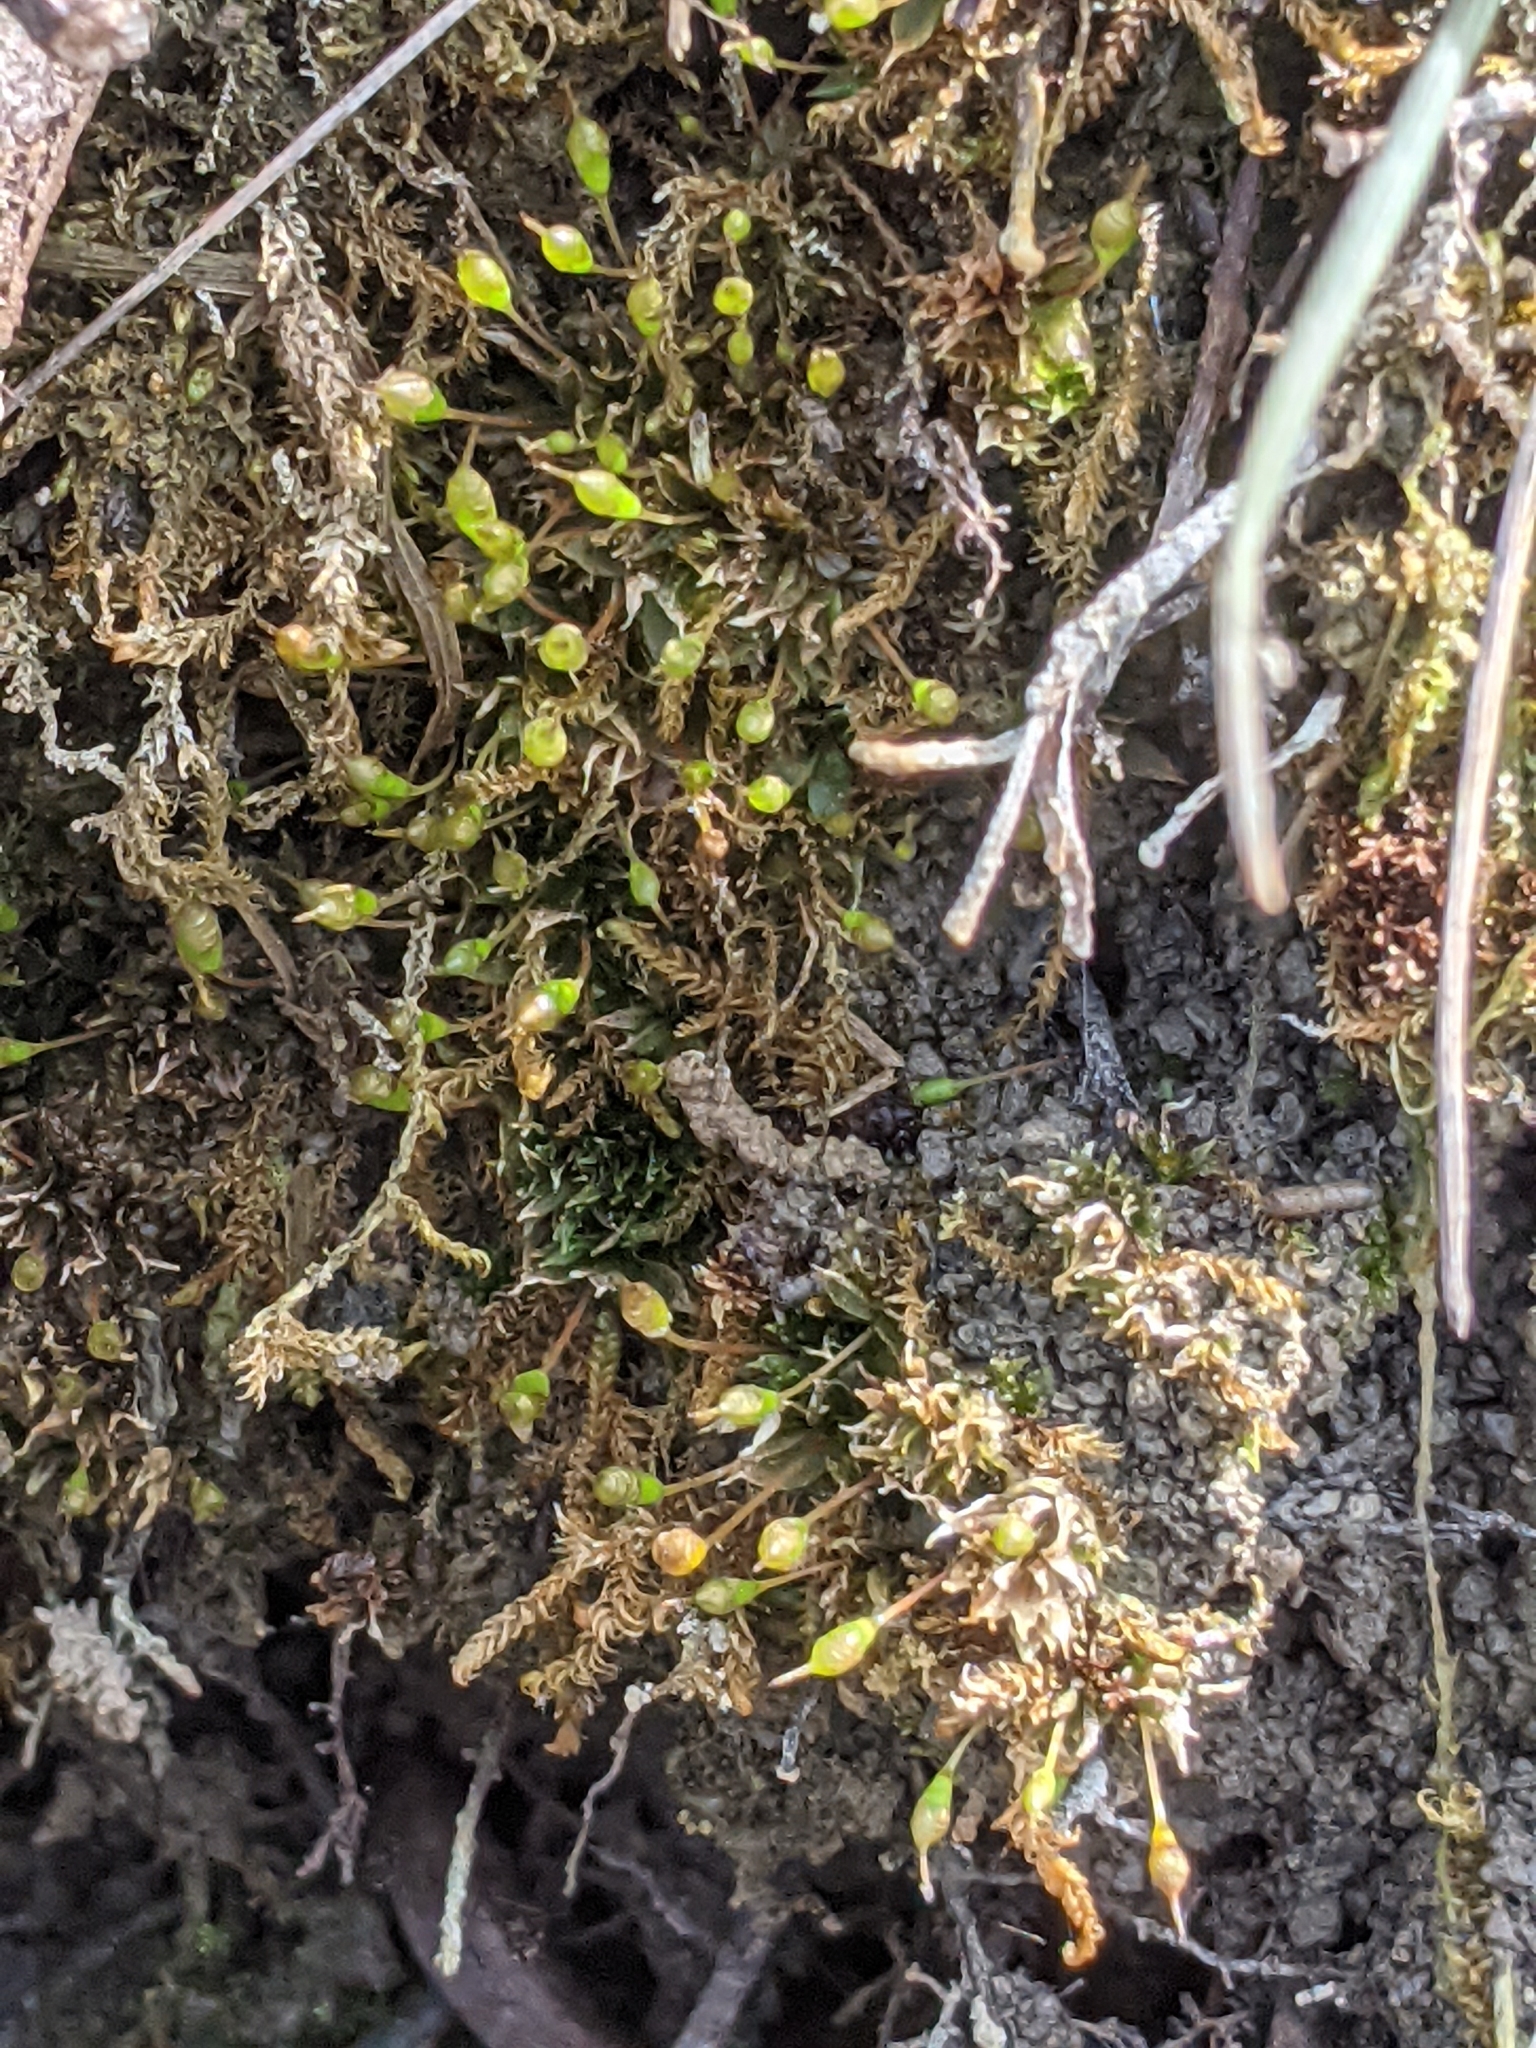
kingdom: Plantae
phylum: Bryophyta
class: Bryopsida
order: Funariales
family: Funariaceae
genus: Physcomitrium
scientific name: Physcomitrium pyriforme
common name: Common bladder-moss
